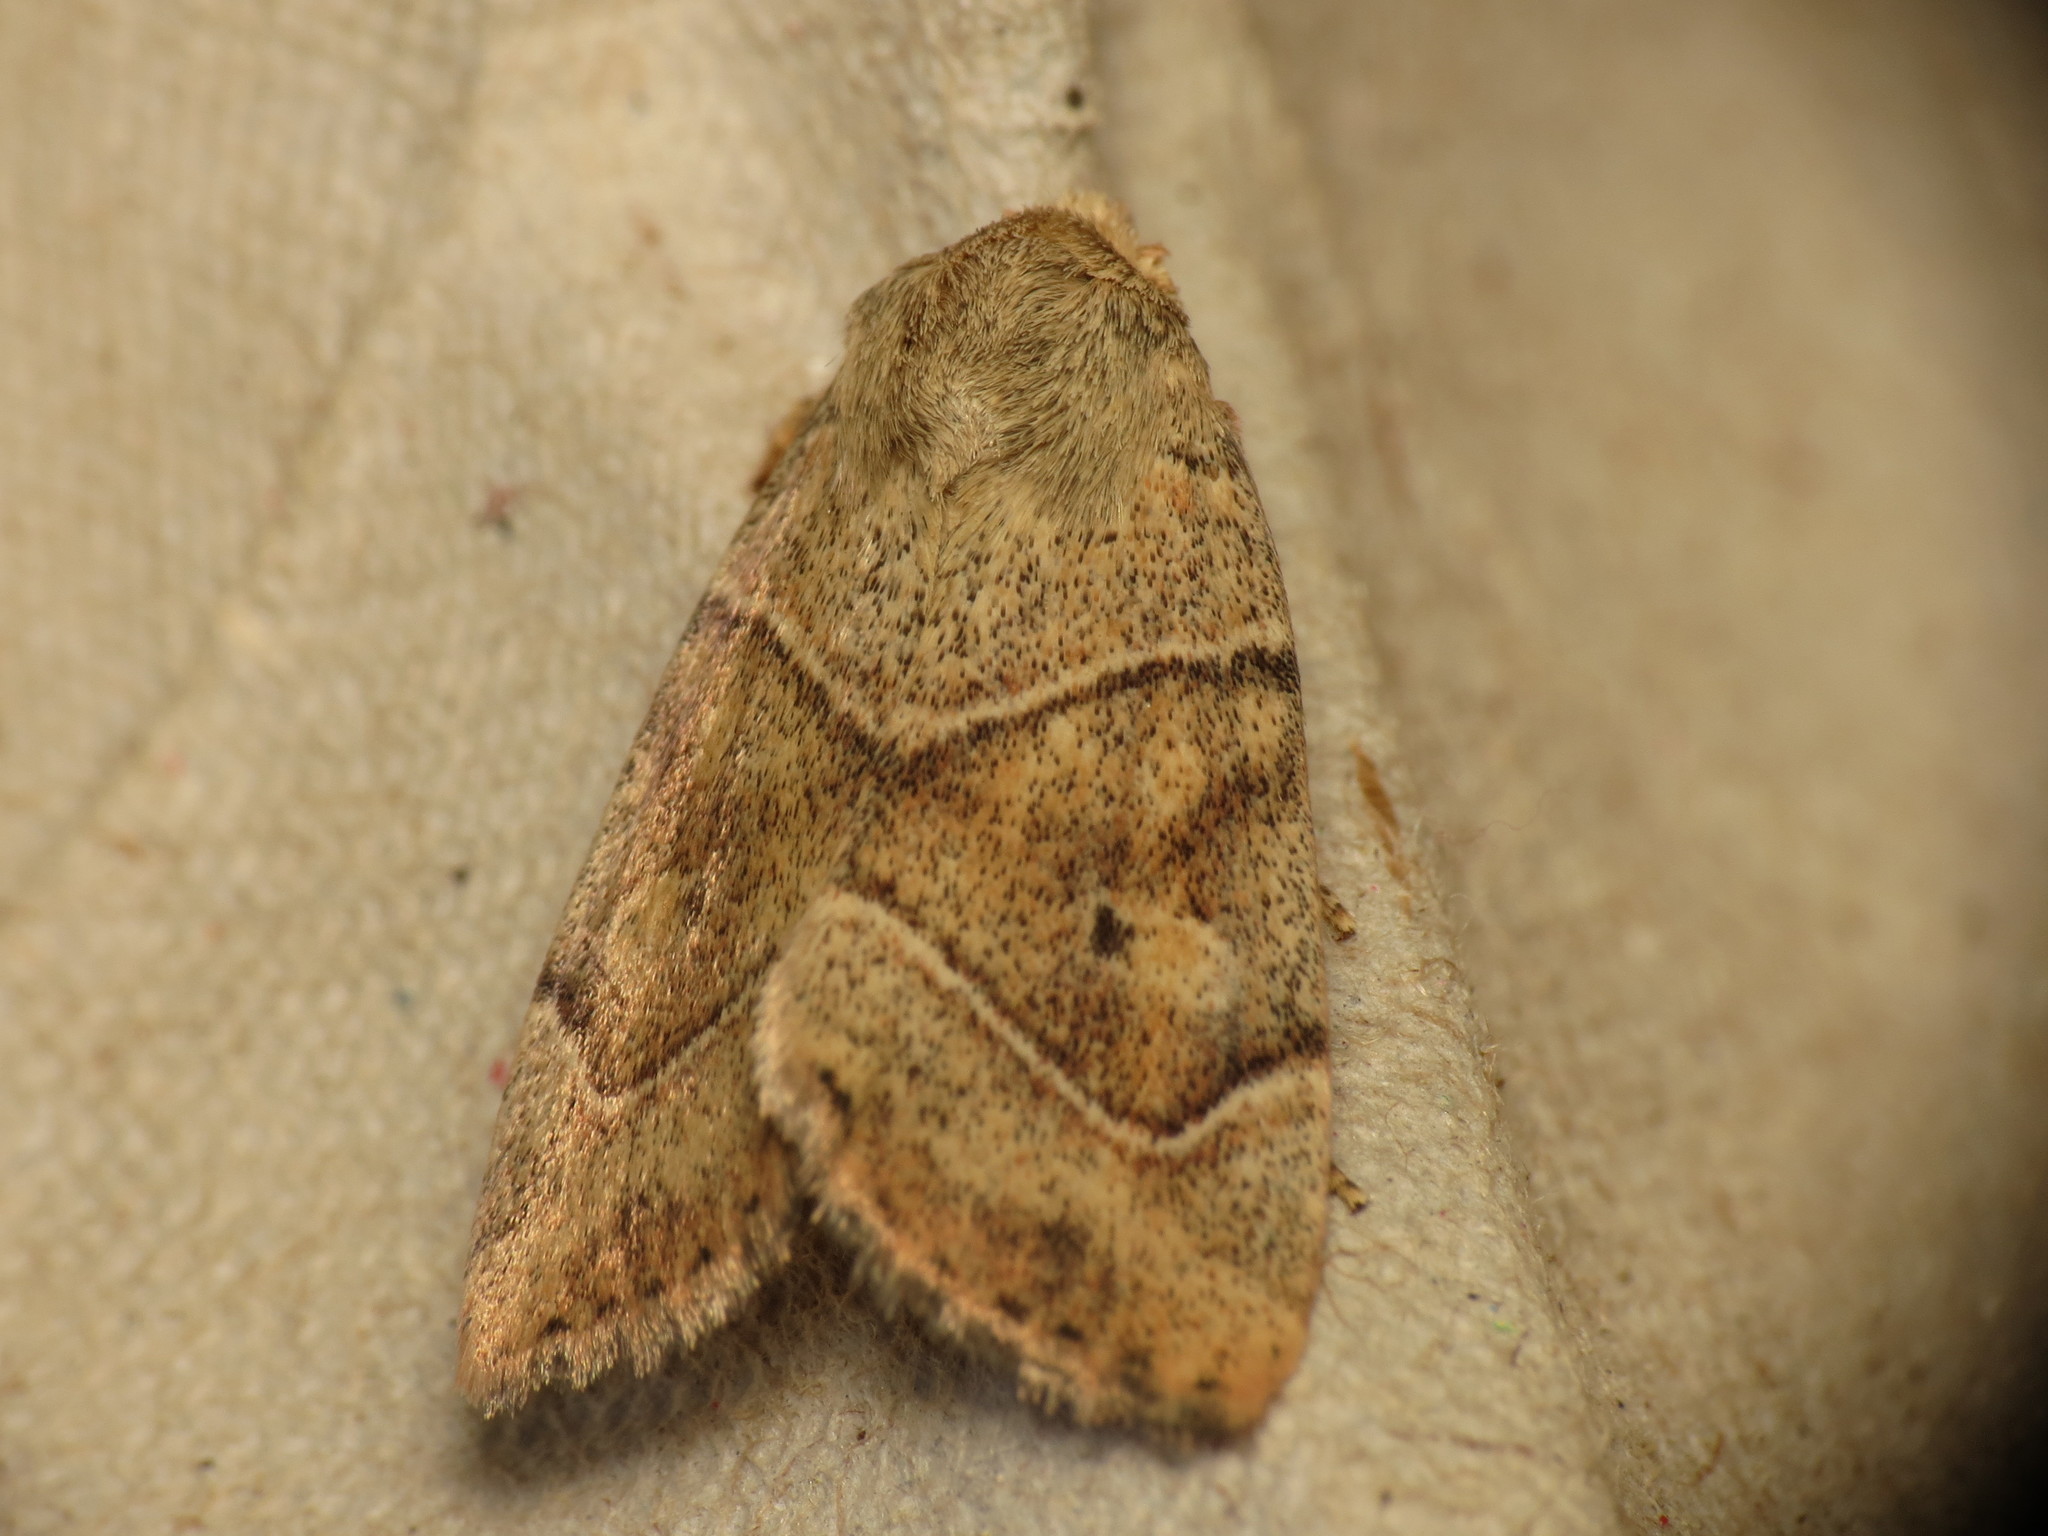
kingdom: Animalia
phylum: Arthropoda
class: Insecta
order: Lepidoptera
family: Noctuidae
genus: Cosmia
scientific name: Cosmia trapezina
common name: Dun-bar
